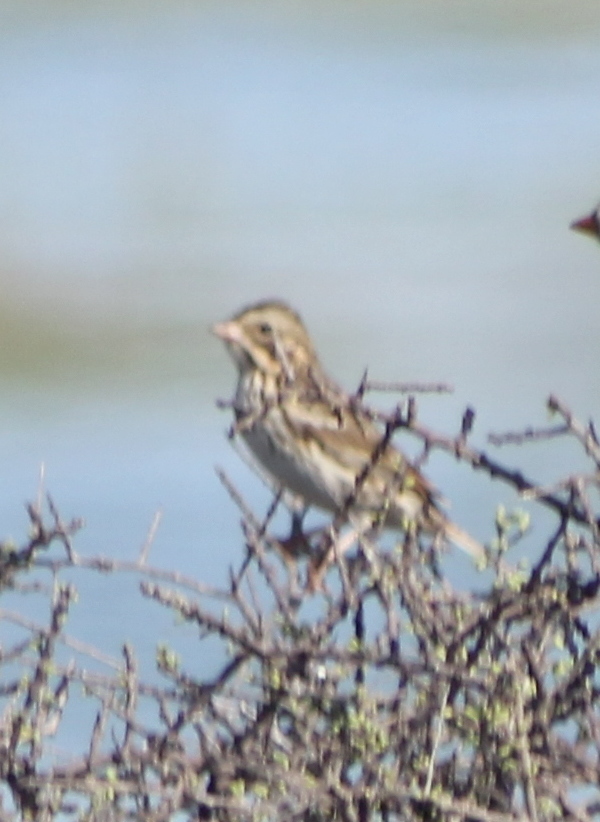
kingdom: Animalia
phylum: Chordata
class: Aves
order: Passeriformes
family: Passerellidae
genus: Passerculus
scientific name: Passerculus sandwichensis
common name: Savannah sparrow
